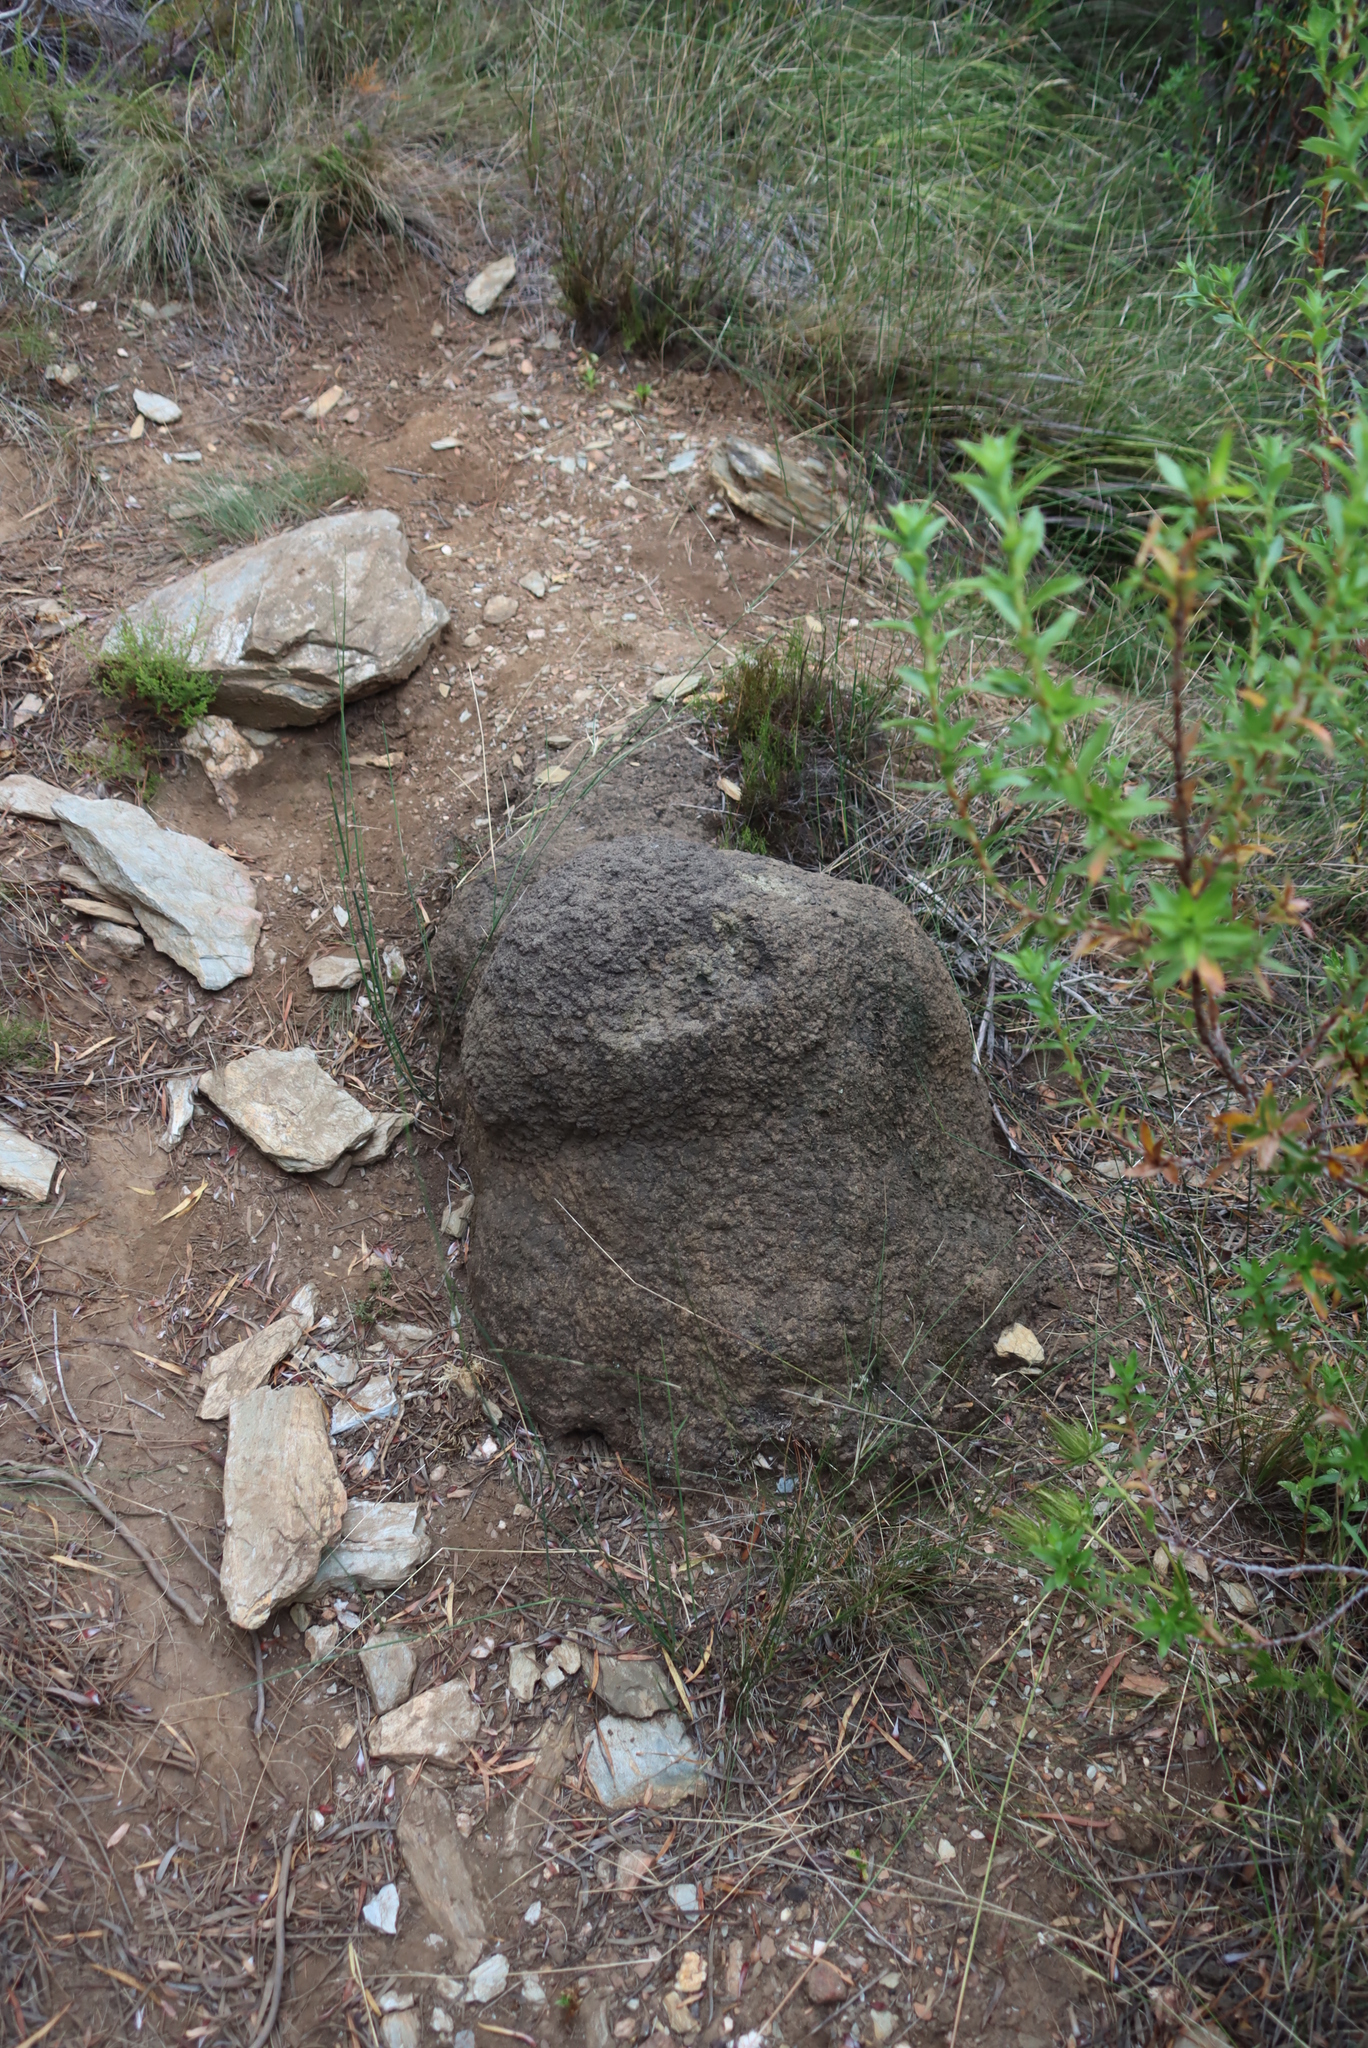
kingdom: Animalia
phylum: Arthropoda
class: Insecta
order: Blattodea
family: Termitidae
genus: Amitermes
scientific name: Amitermes hastatus
